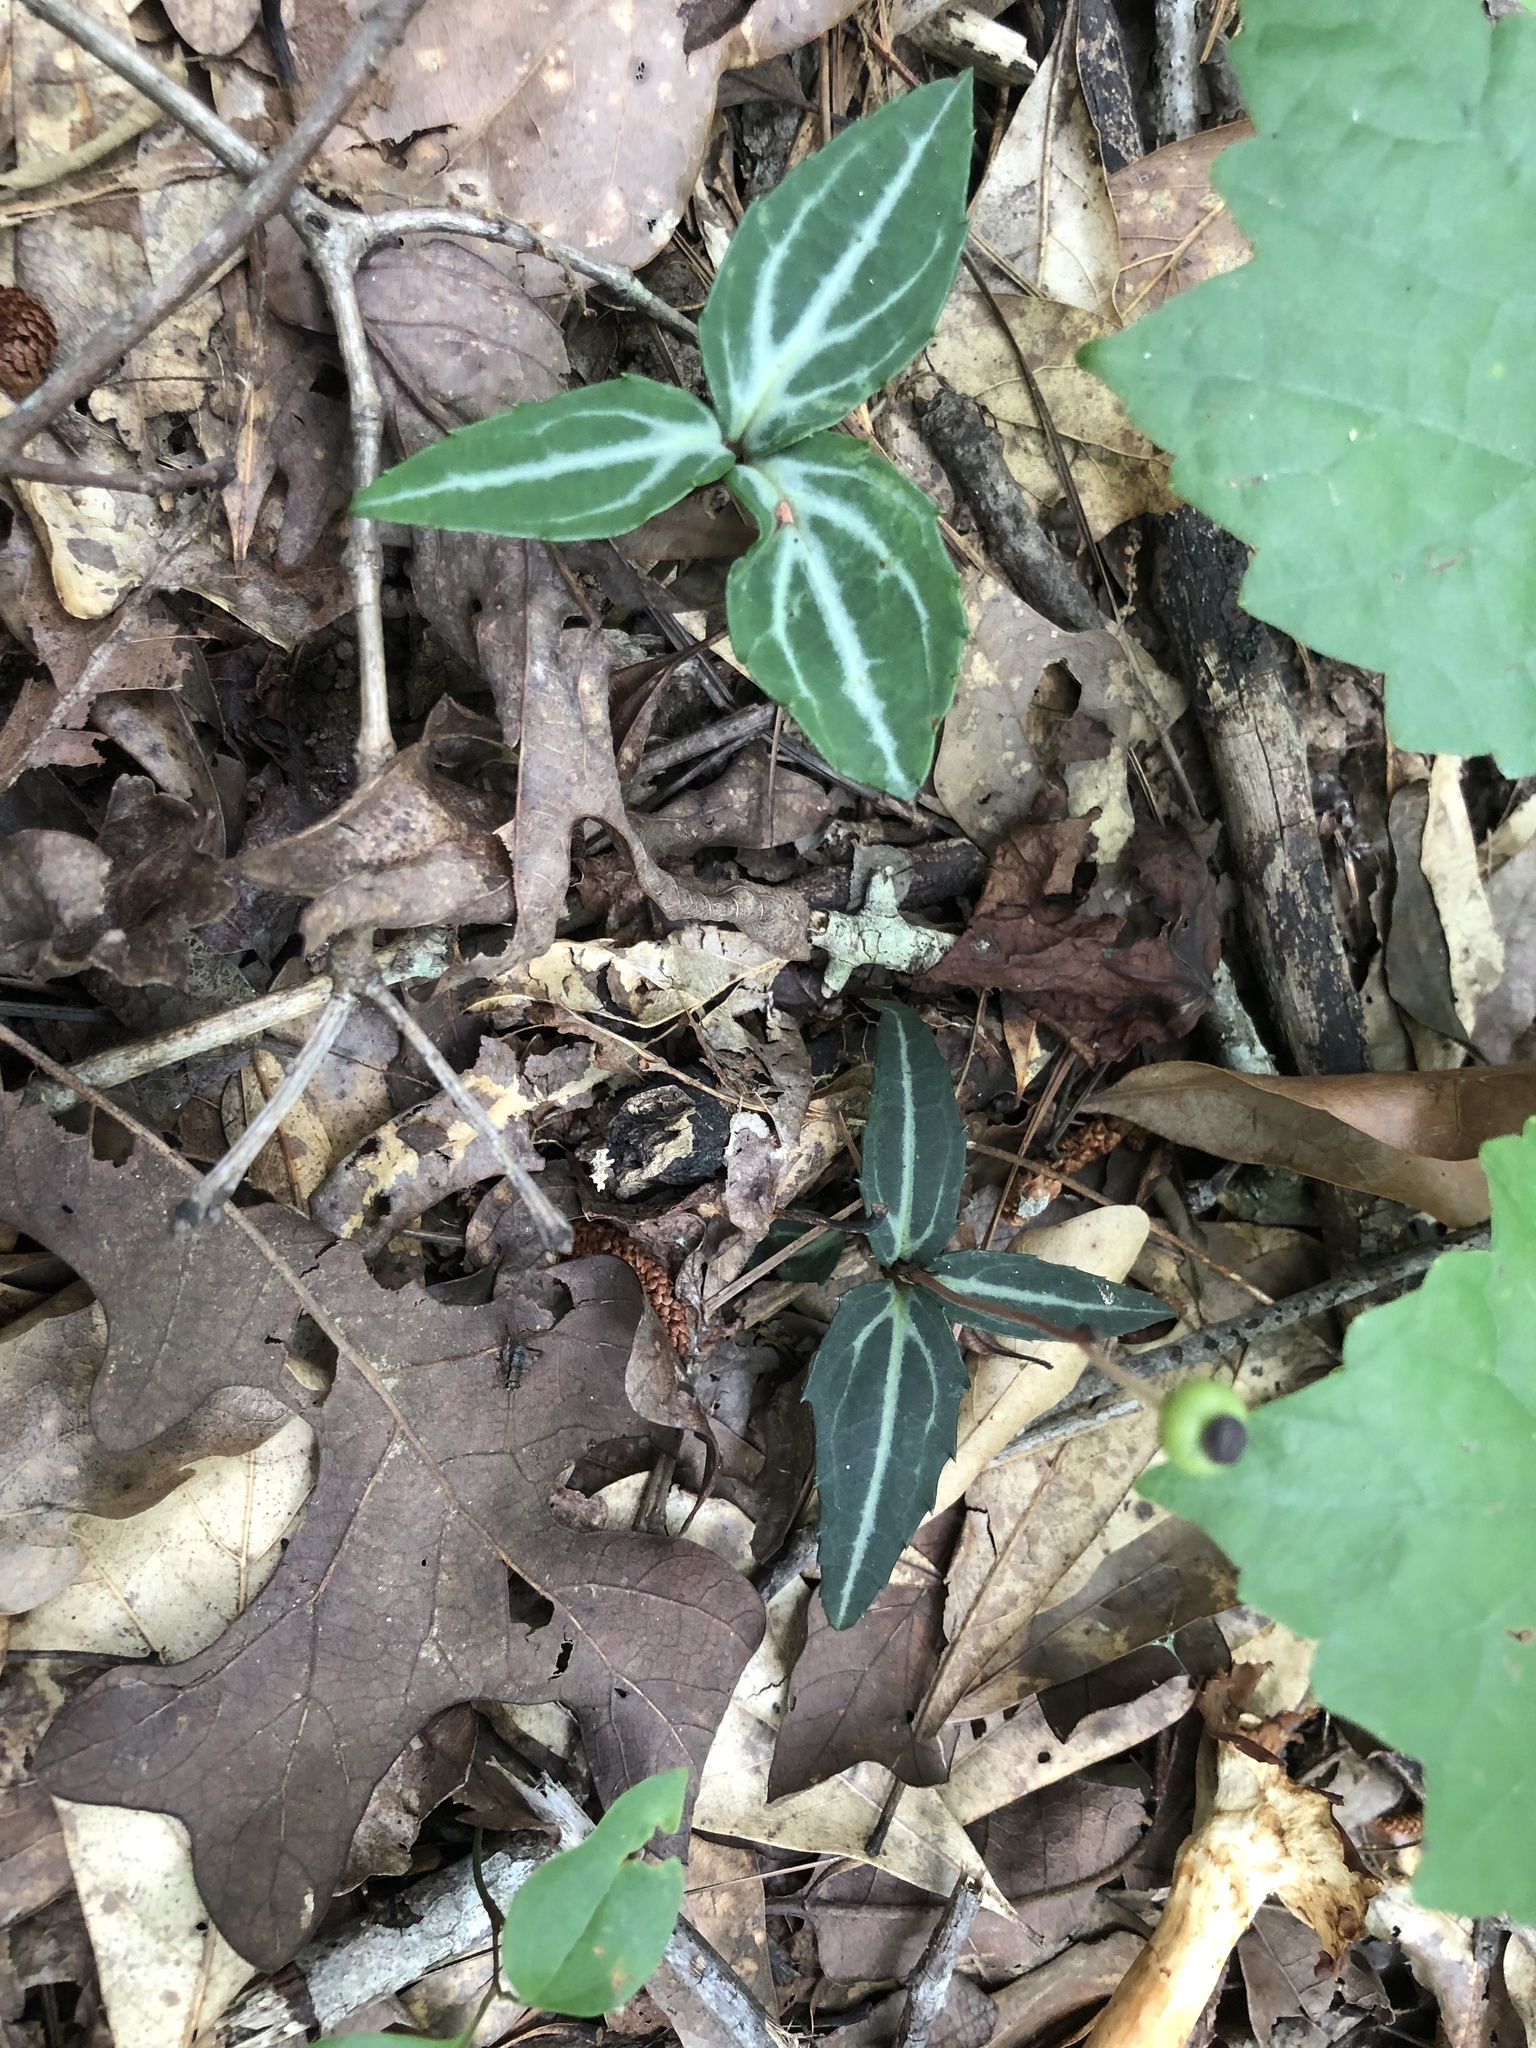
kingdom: Plantae
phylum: Tracheophyta
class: Magnoliopsida
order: Ericales
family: Ericaceae
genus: Chimaphila
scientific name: Chimaphila maculata
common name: Spotted pipsissewa
